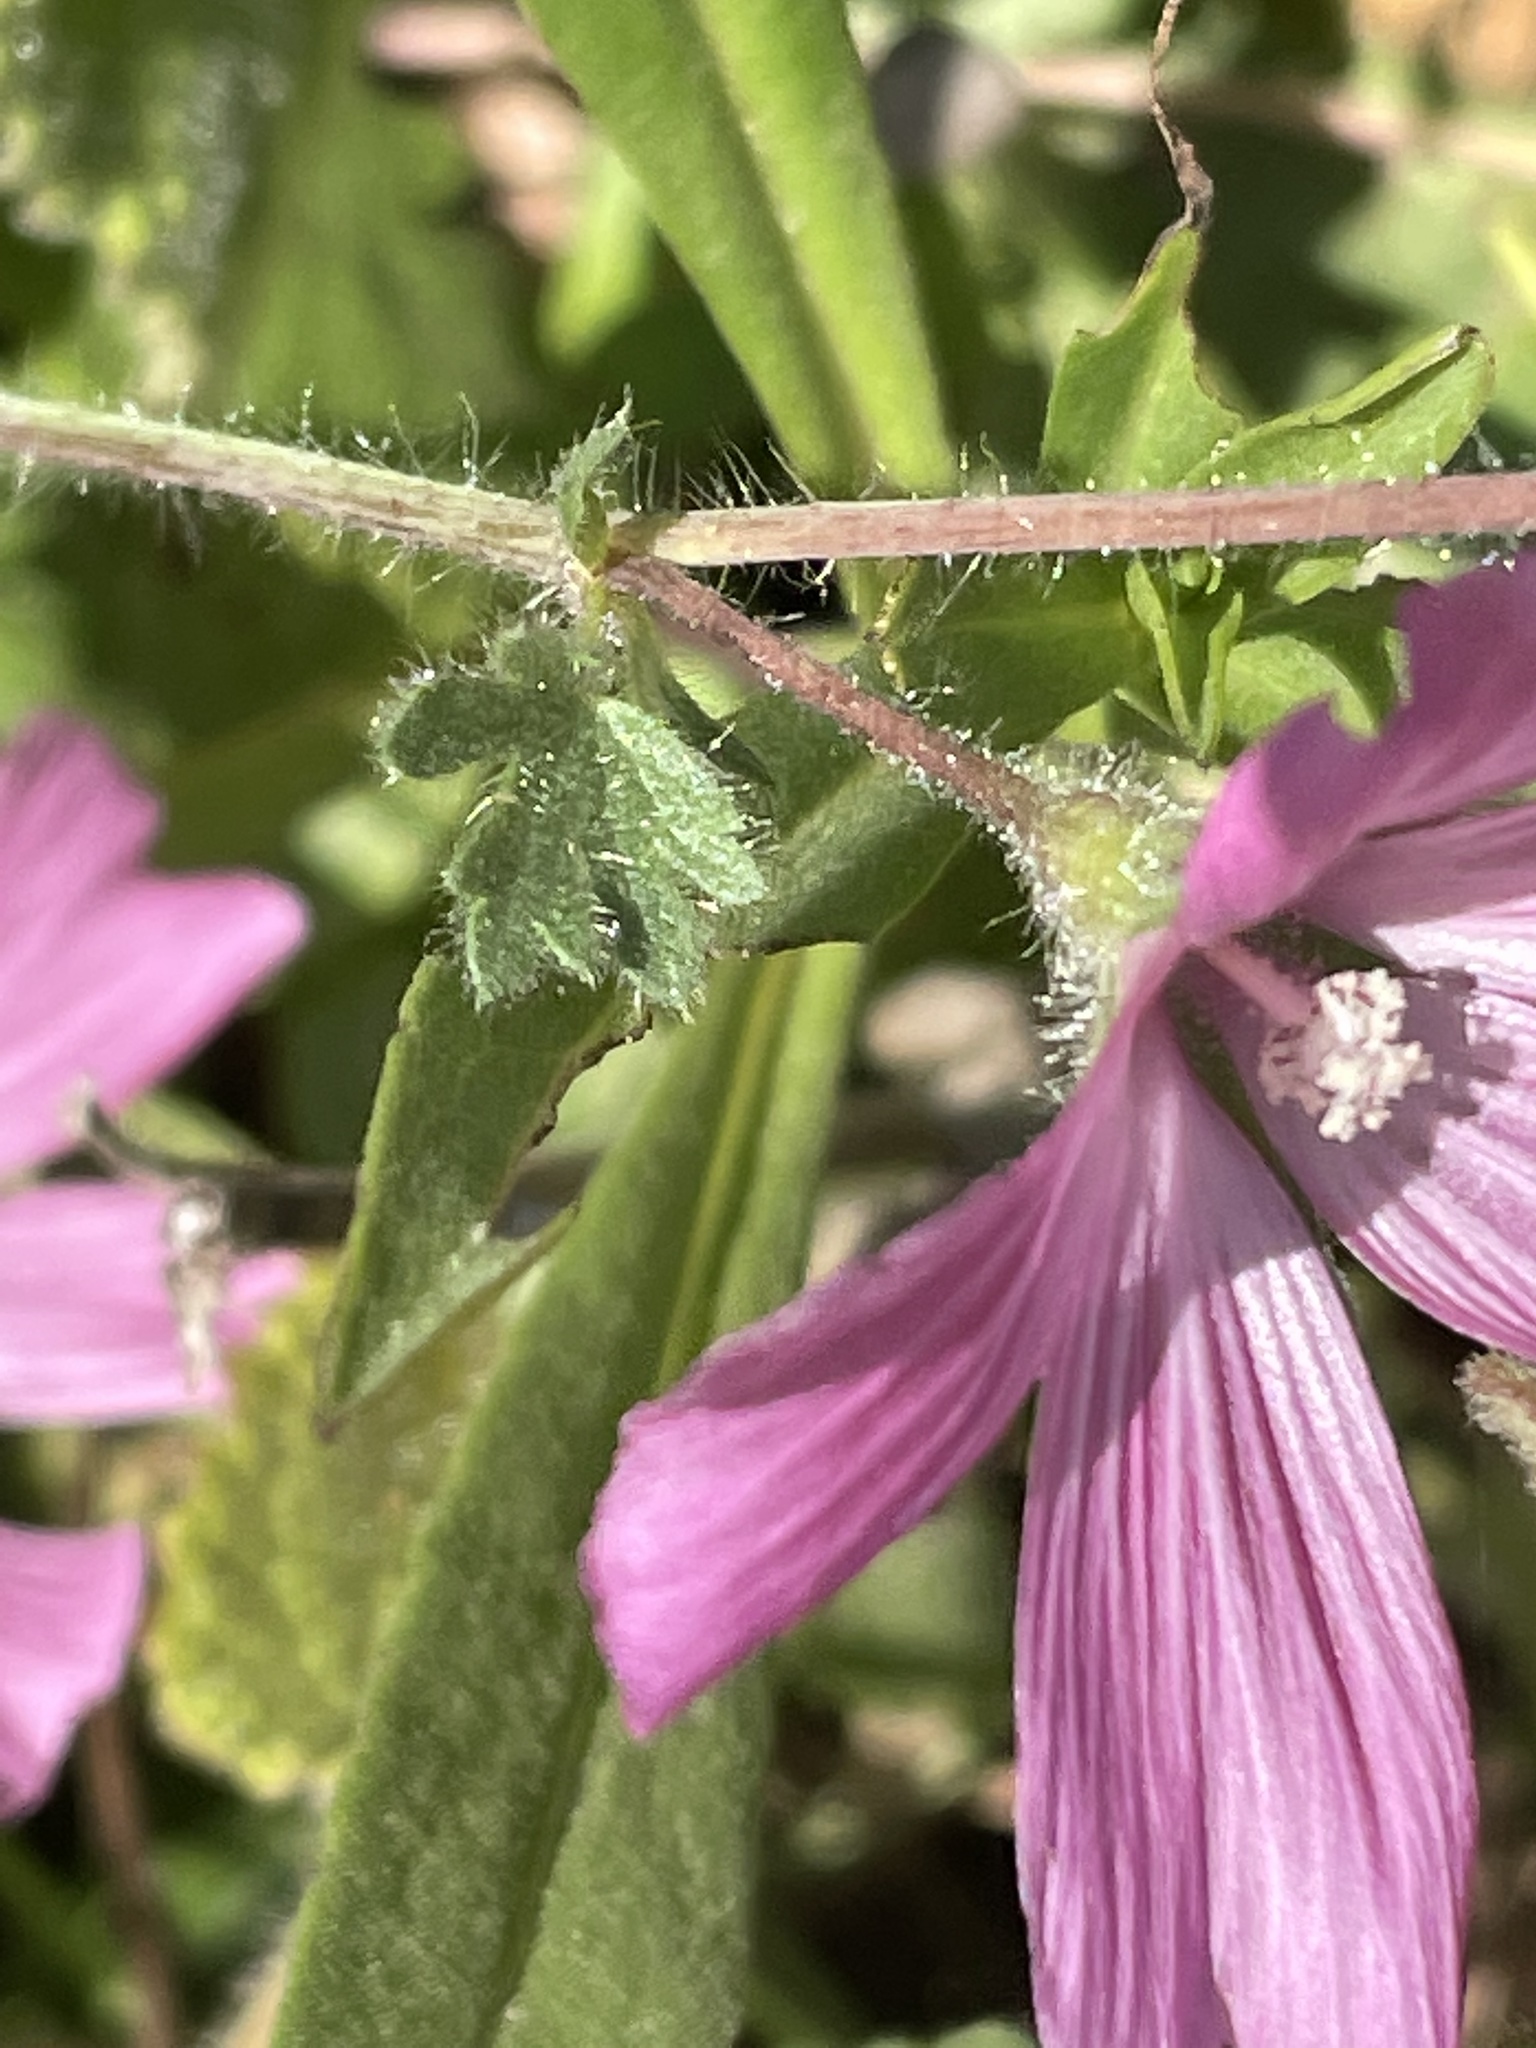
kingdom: Plantae
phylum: Tracheophyta
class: Magnoliopsida
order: Malvales
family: Malvaceae
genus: Sidalcea
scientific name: Sidalcea malviflora
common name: Greek mallow
